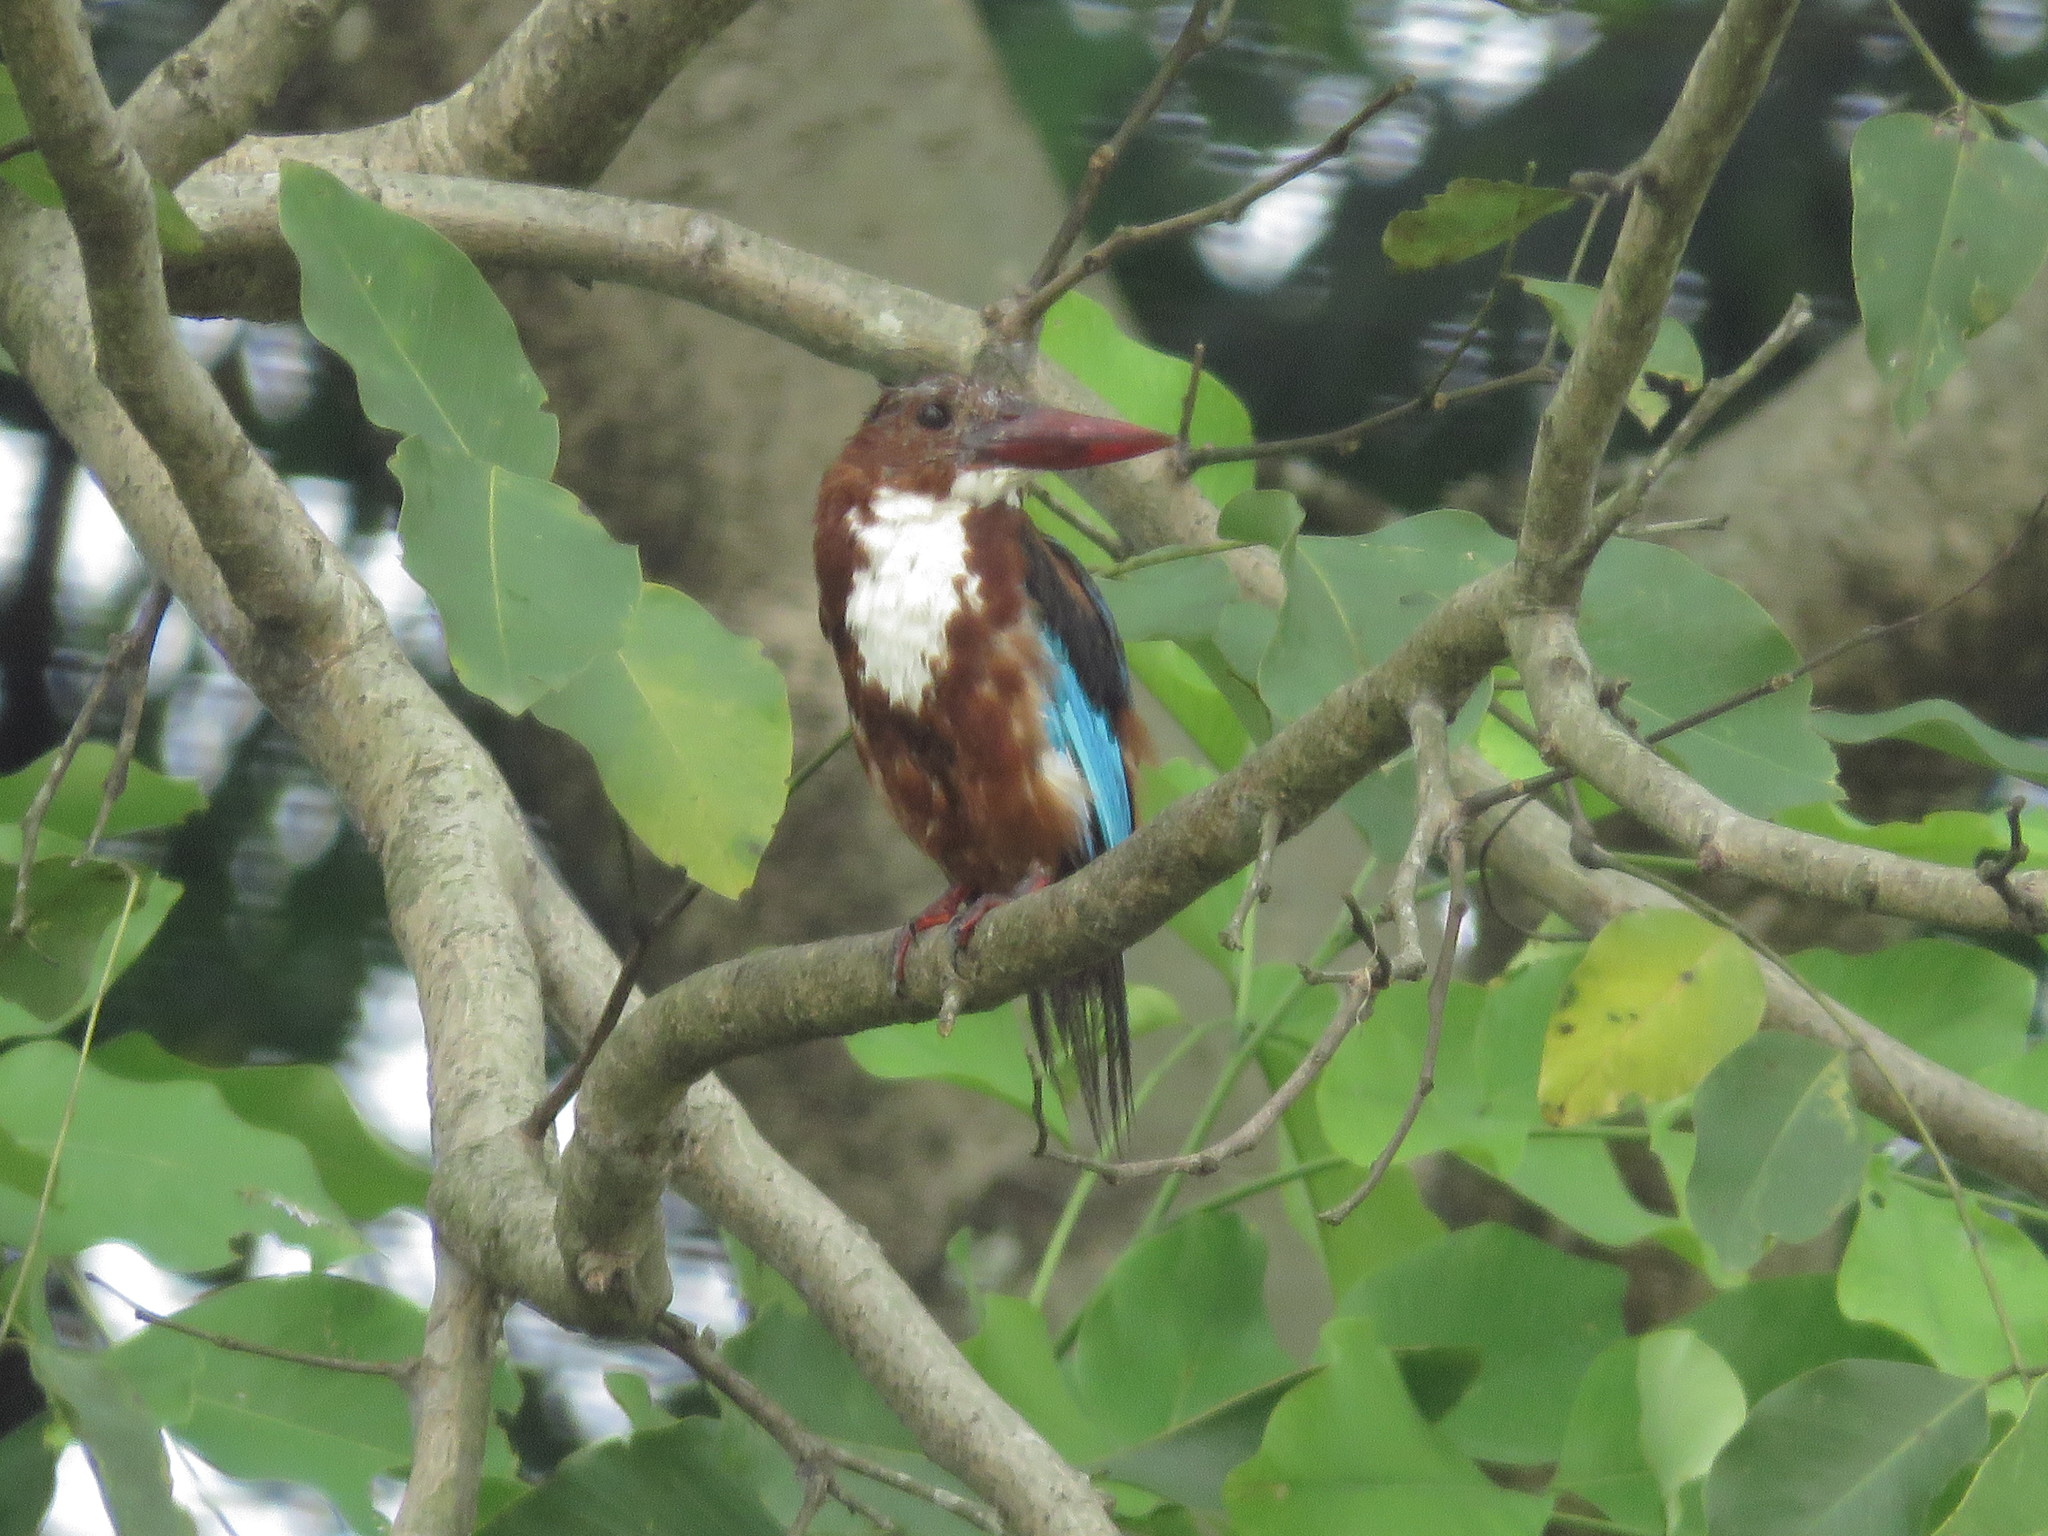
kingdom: Animalia
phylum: Chordata
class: Aves
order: Coraciiformes
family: Alcedinidae
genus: Halcyon
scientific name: Halcyon smyrnensis
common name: White-throated kingfisher
